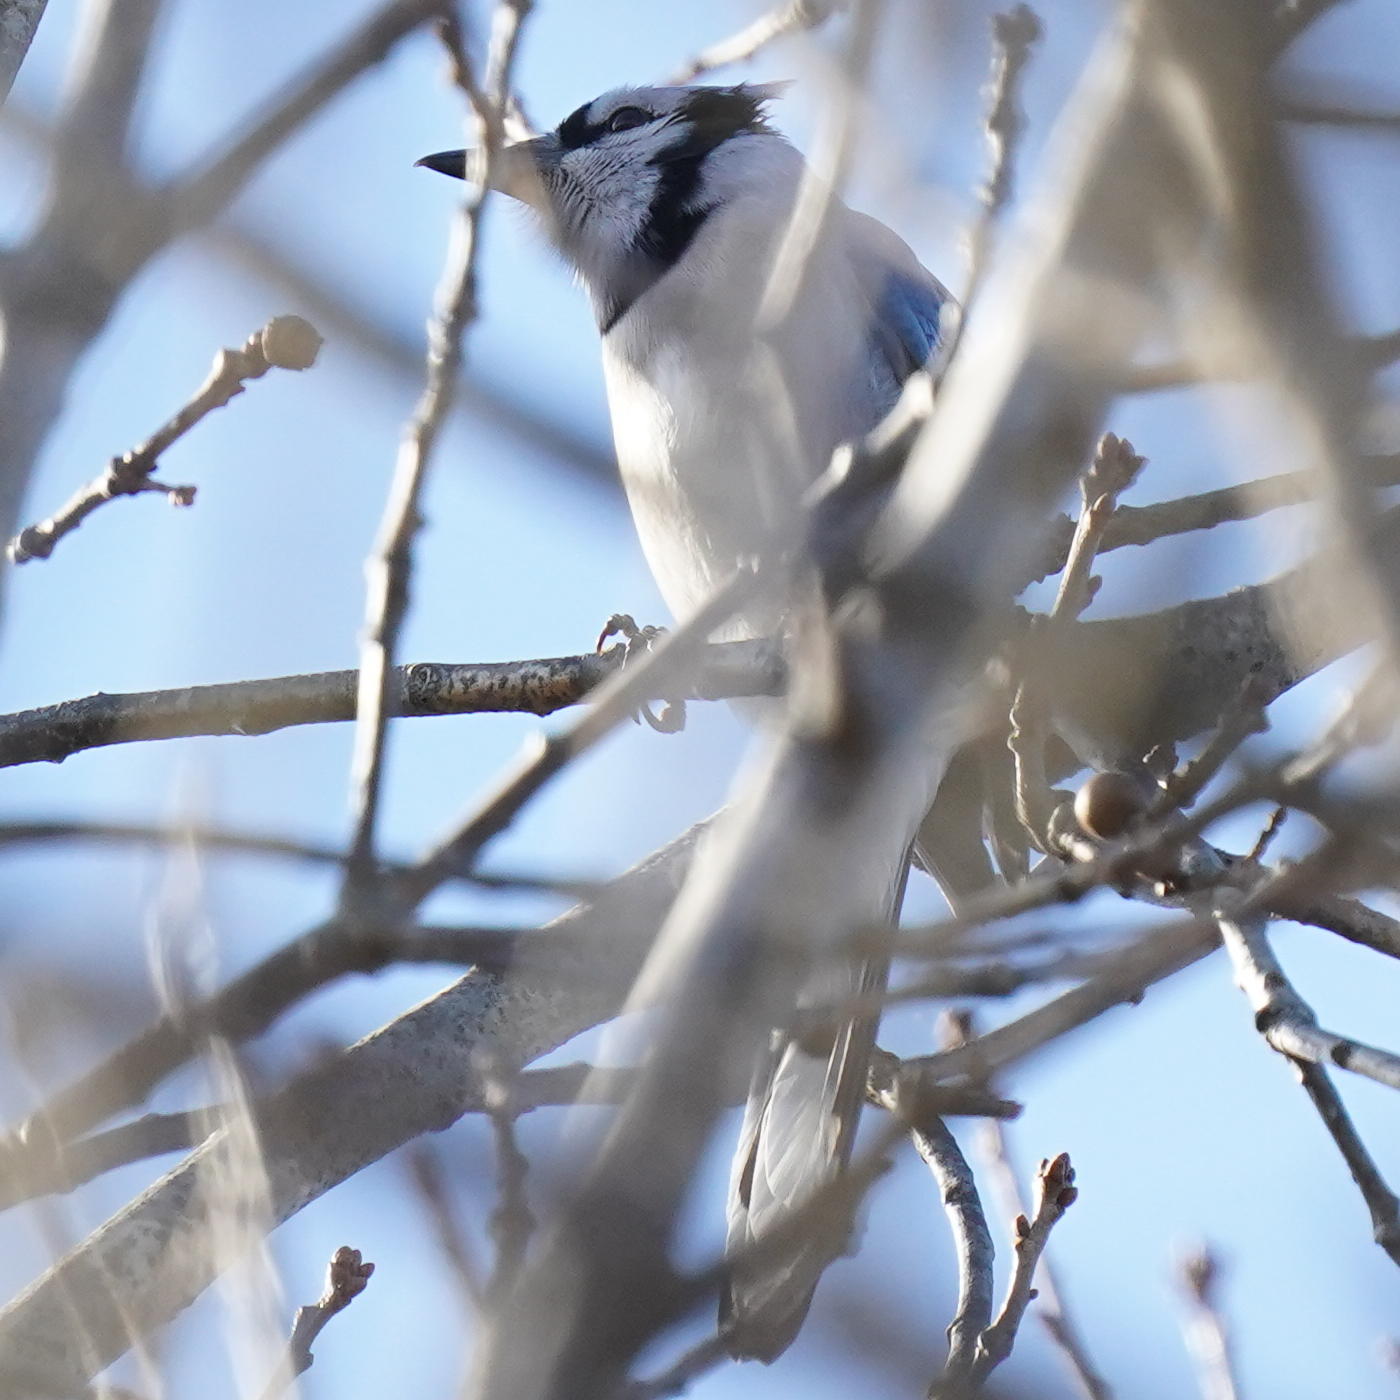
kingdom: Animalia
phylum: Chordata
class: Aves
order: Passeriformes
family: Corvidae
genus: Cyanocitta
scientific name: Cyanocitta cristata
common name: Blue jay
